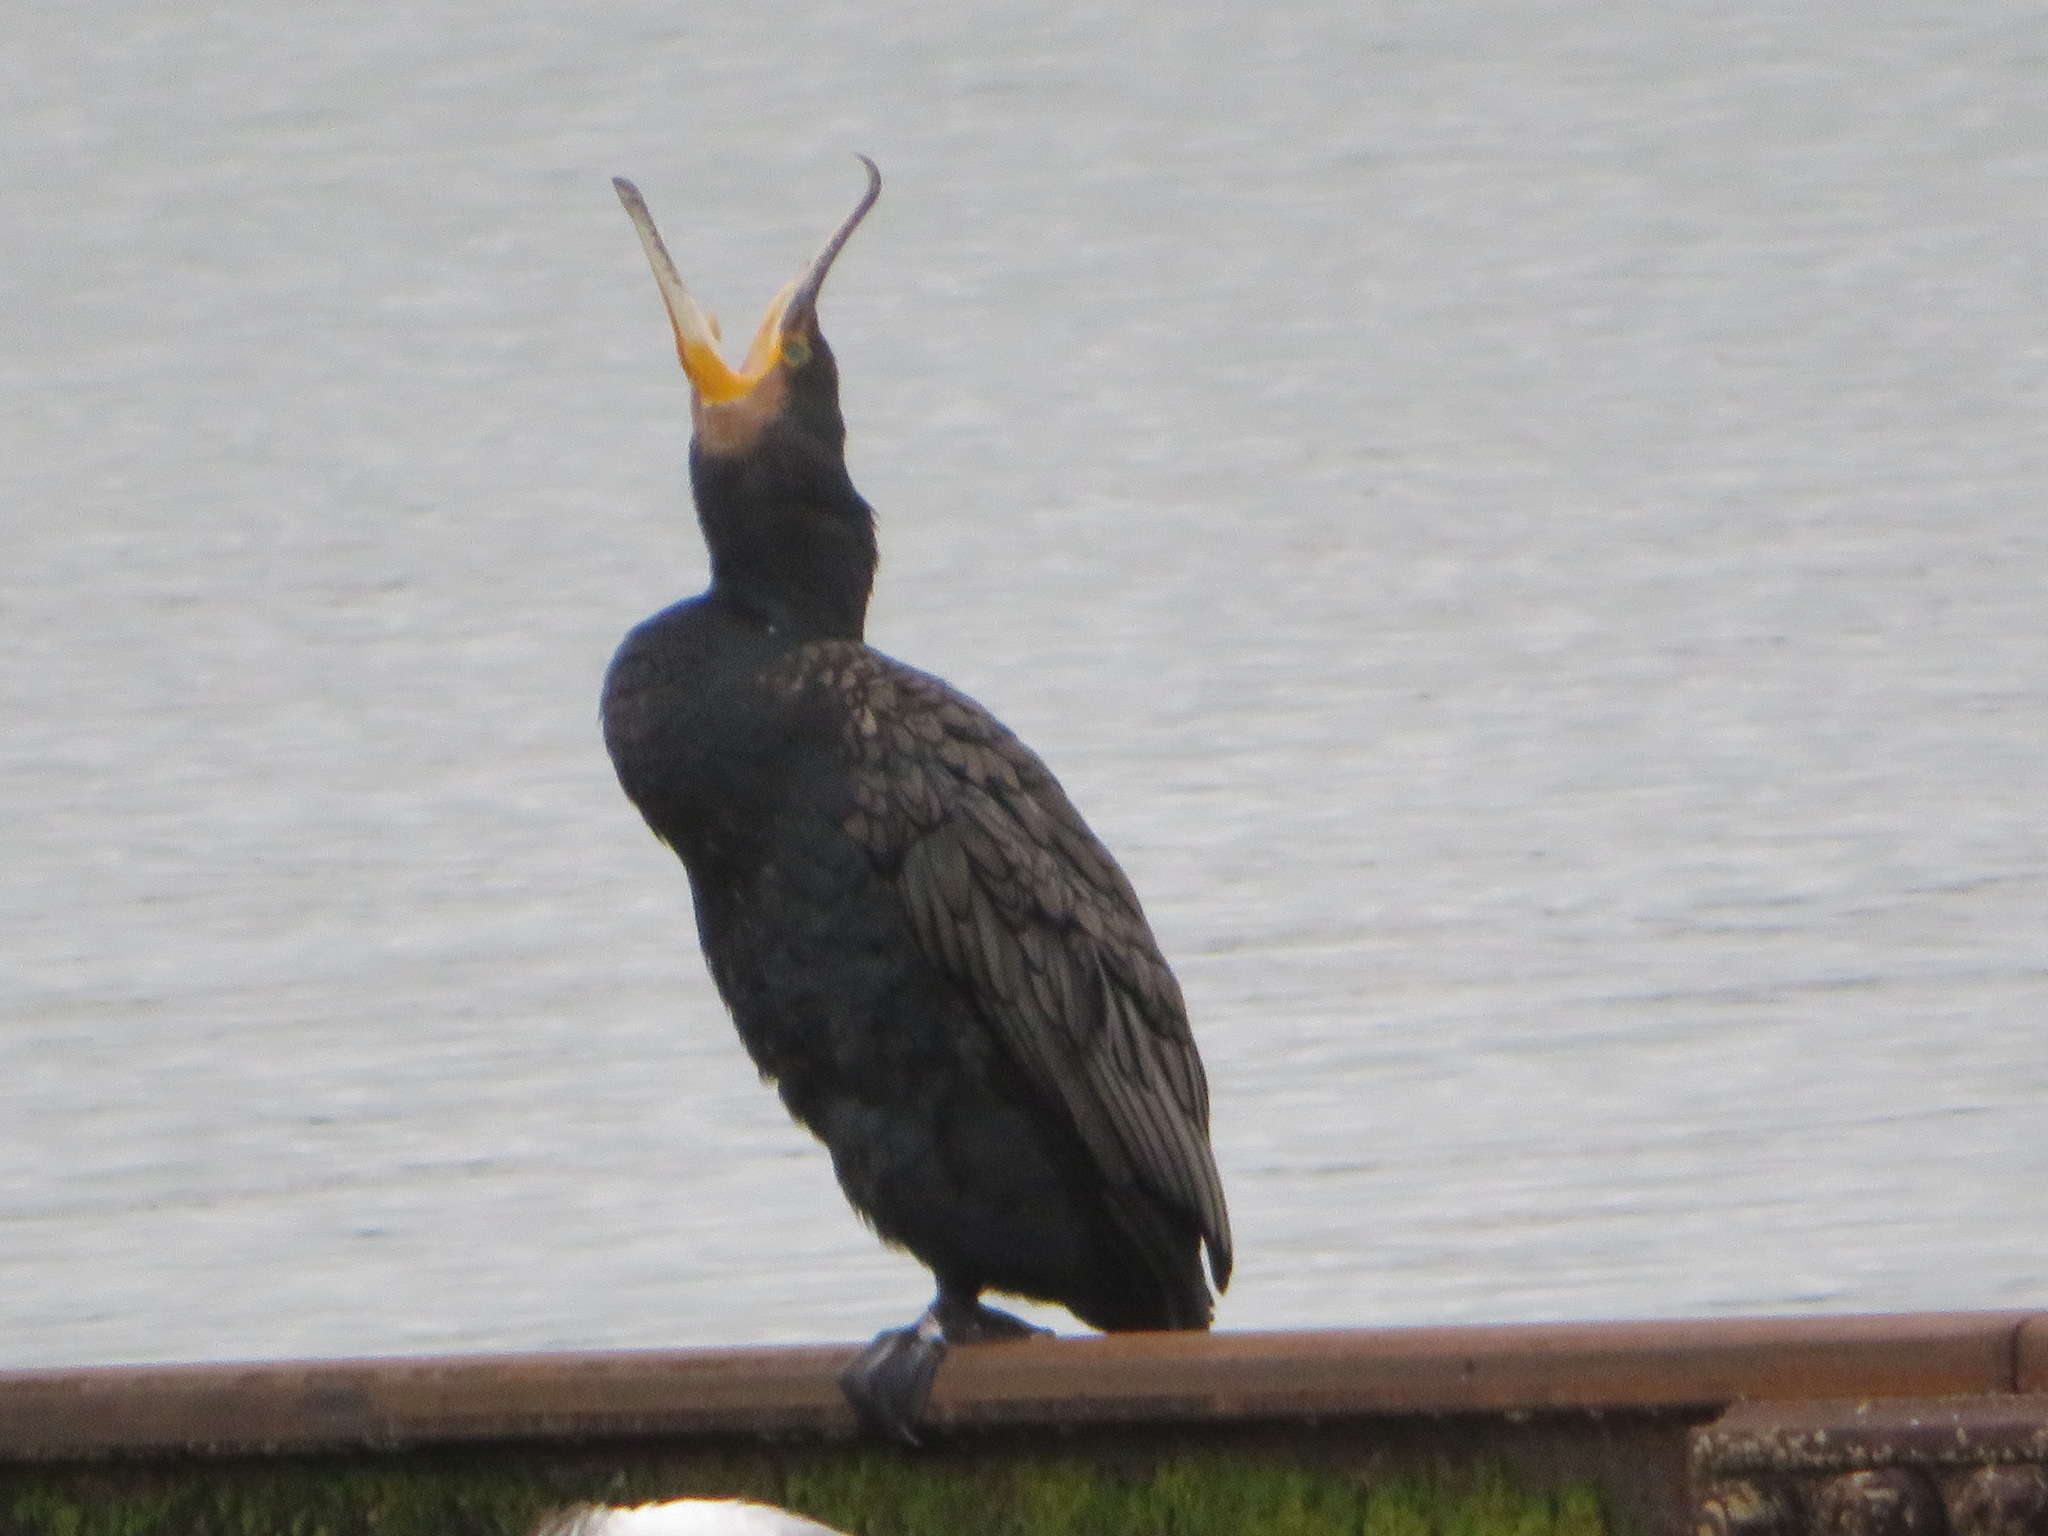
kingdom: Animalia
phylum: Chordata
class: Aves
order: Suliformes
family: Phalacrocoracidae
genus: Phalacrocorax
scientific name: Phalacrocorax carbo
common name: Great cormorant
